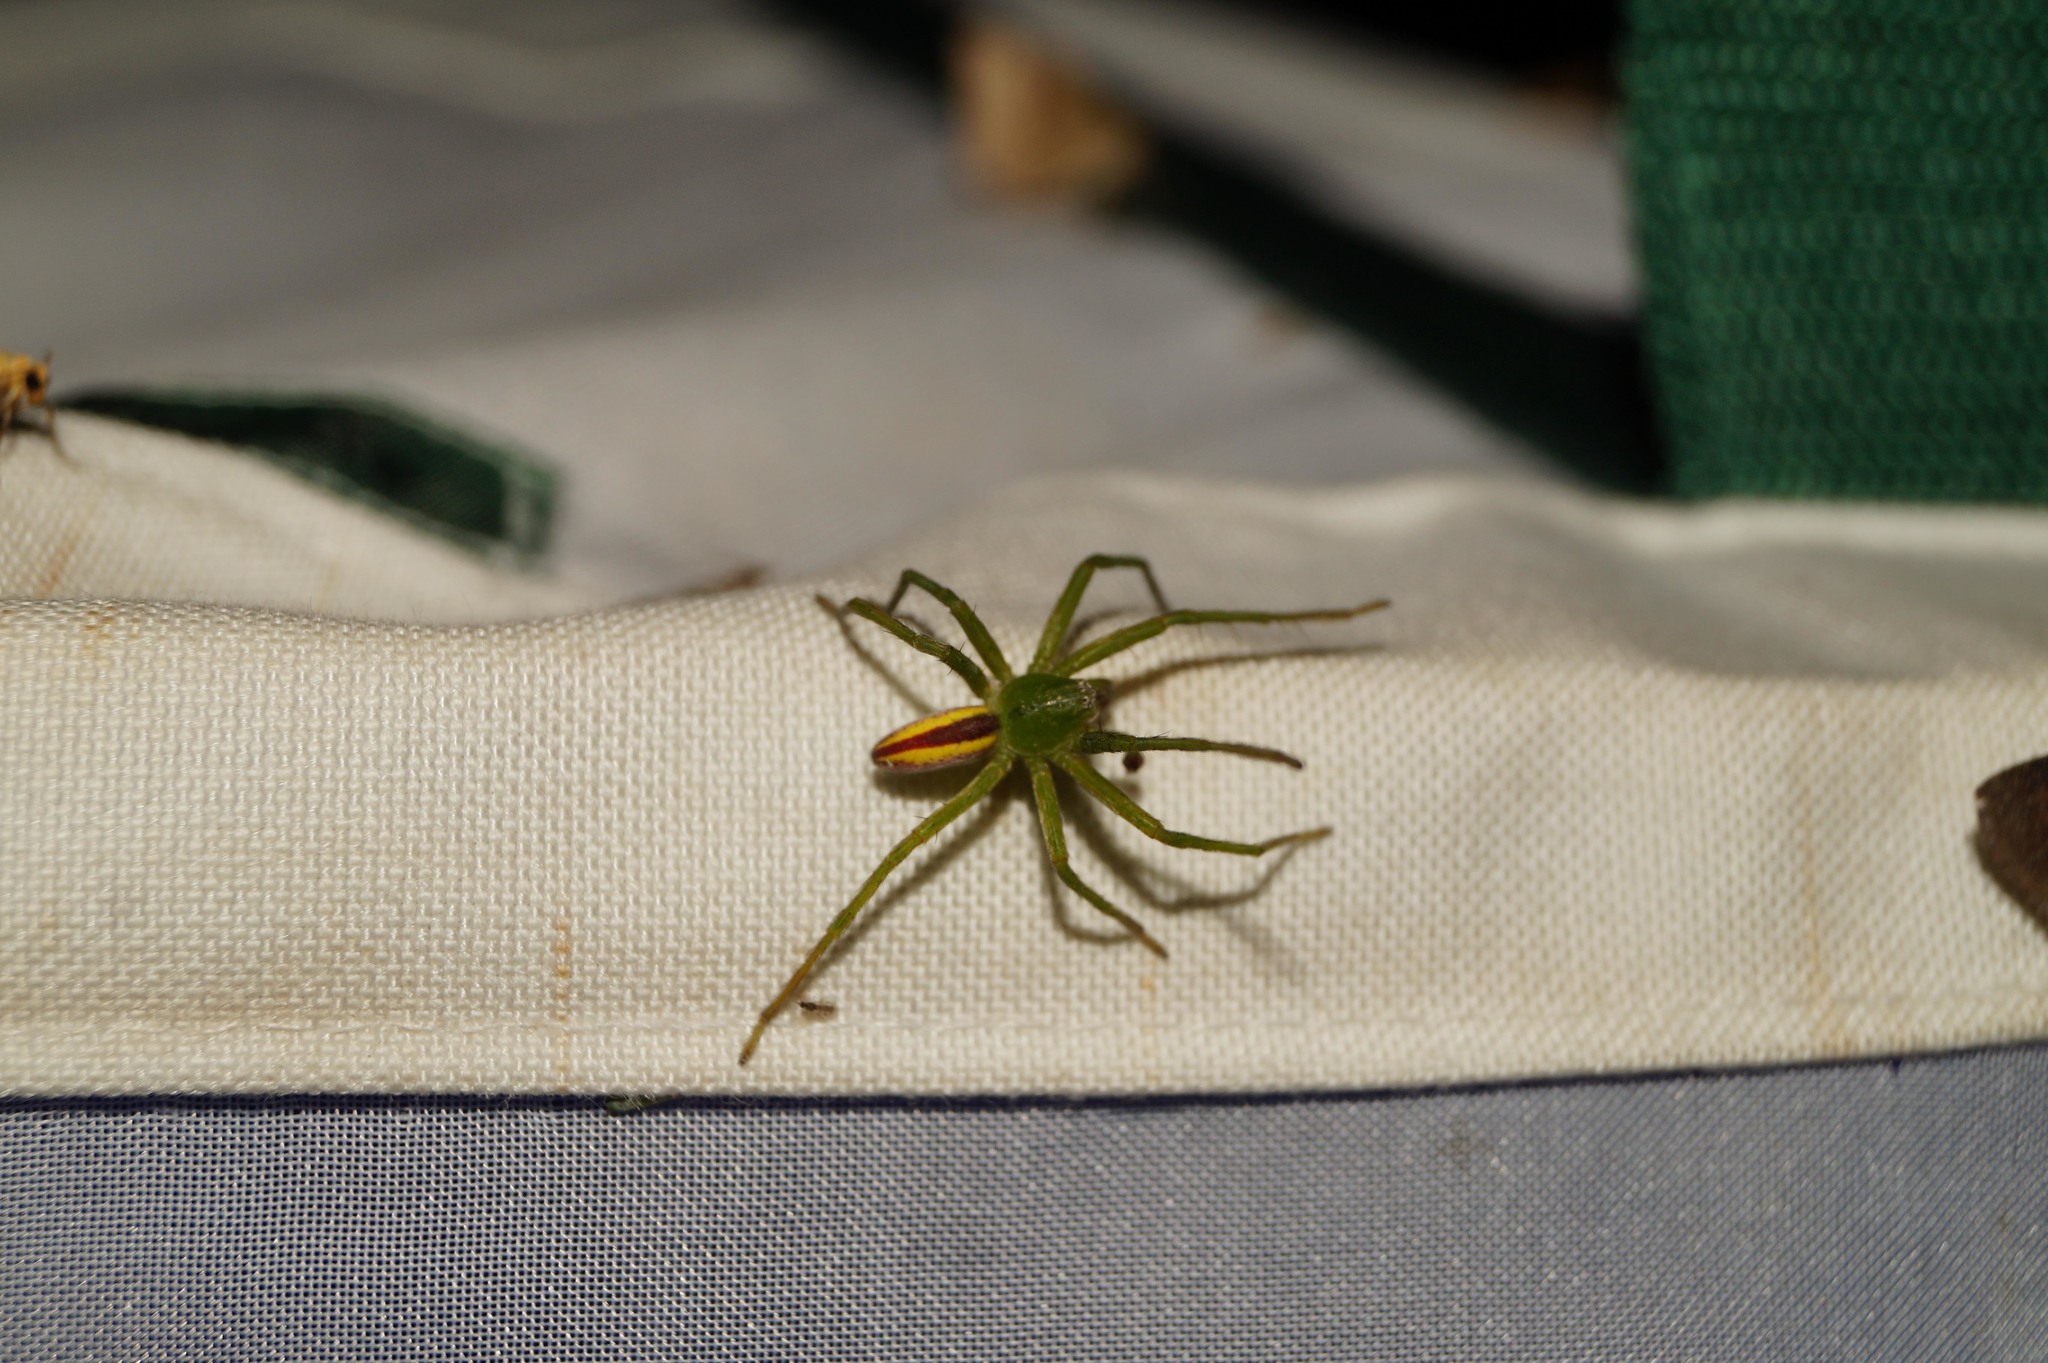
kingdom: Animalia
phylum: Arthropoda
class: Arachnida
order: Araneae
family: Sparassidae
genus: Micrommata
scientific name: Micrommata virescens
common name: Green spider
